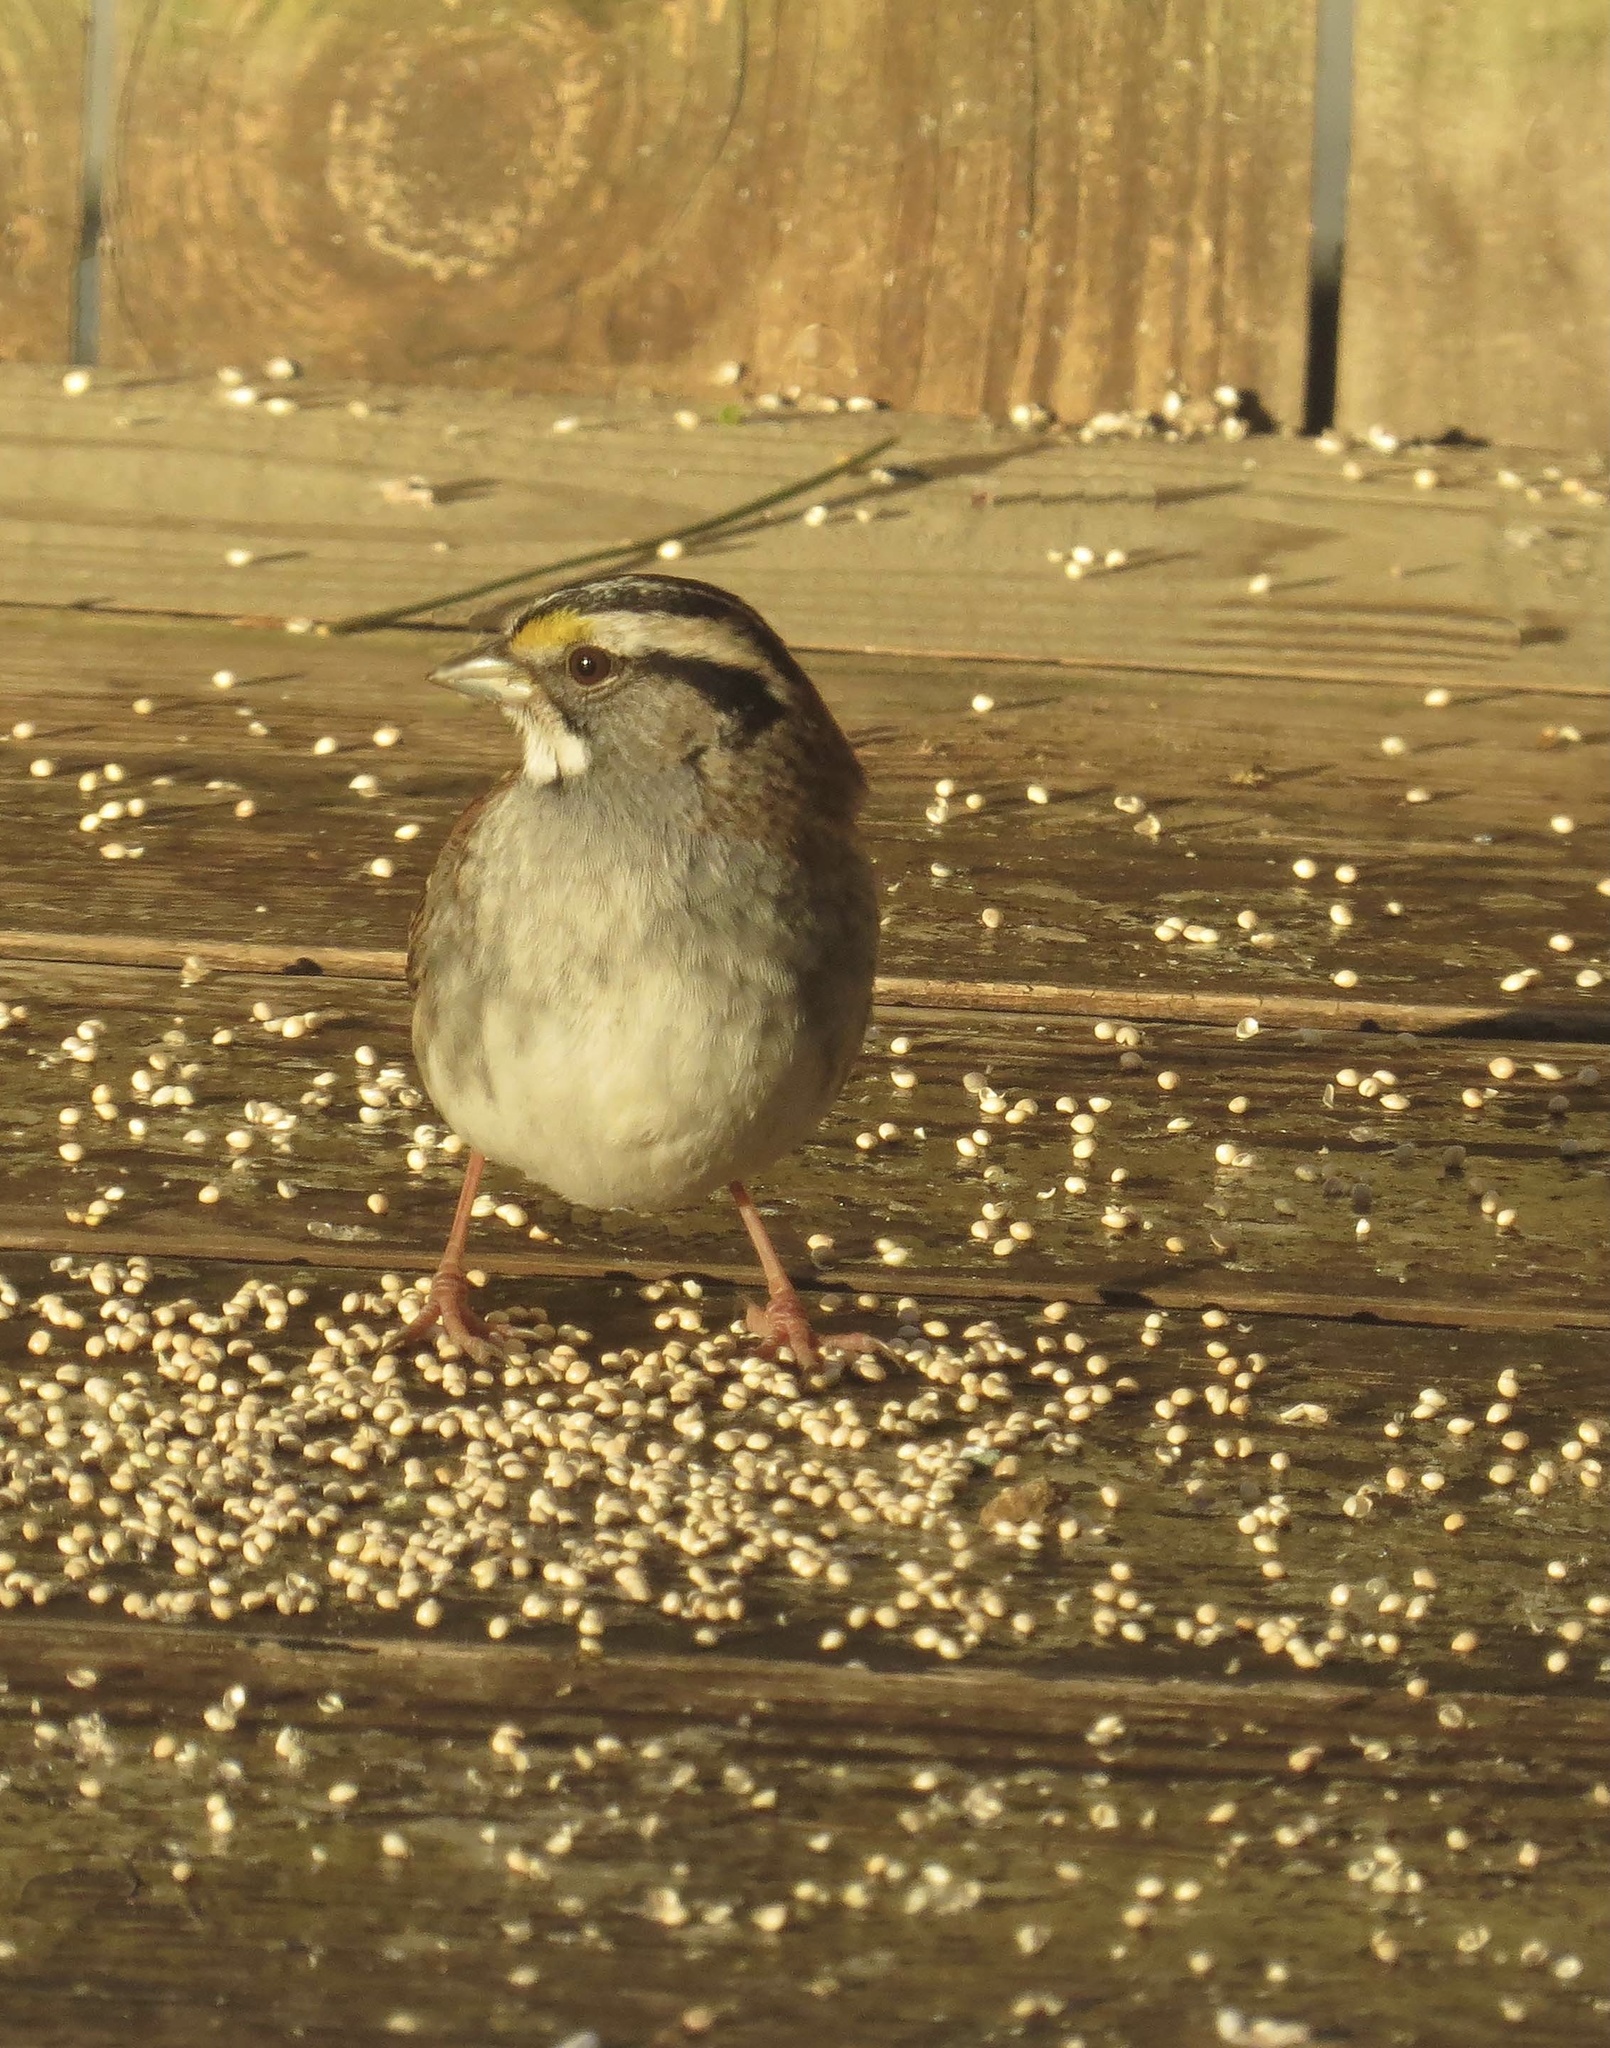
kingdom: Animalia
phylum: Chordata
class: Aves
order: Passeriformes
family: Passerellidae
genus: Zonotrichia
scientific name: Zonotrichia albicollis
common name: White-throated sparrow
